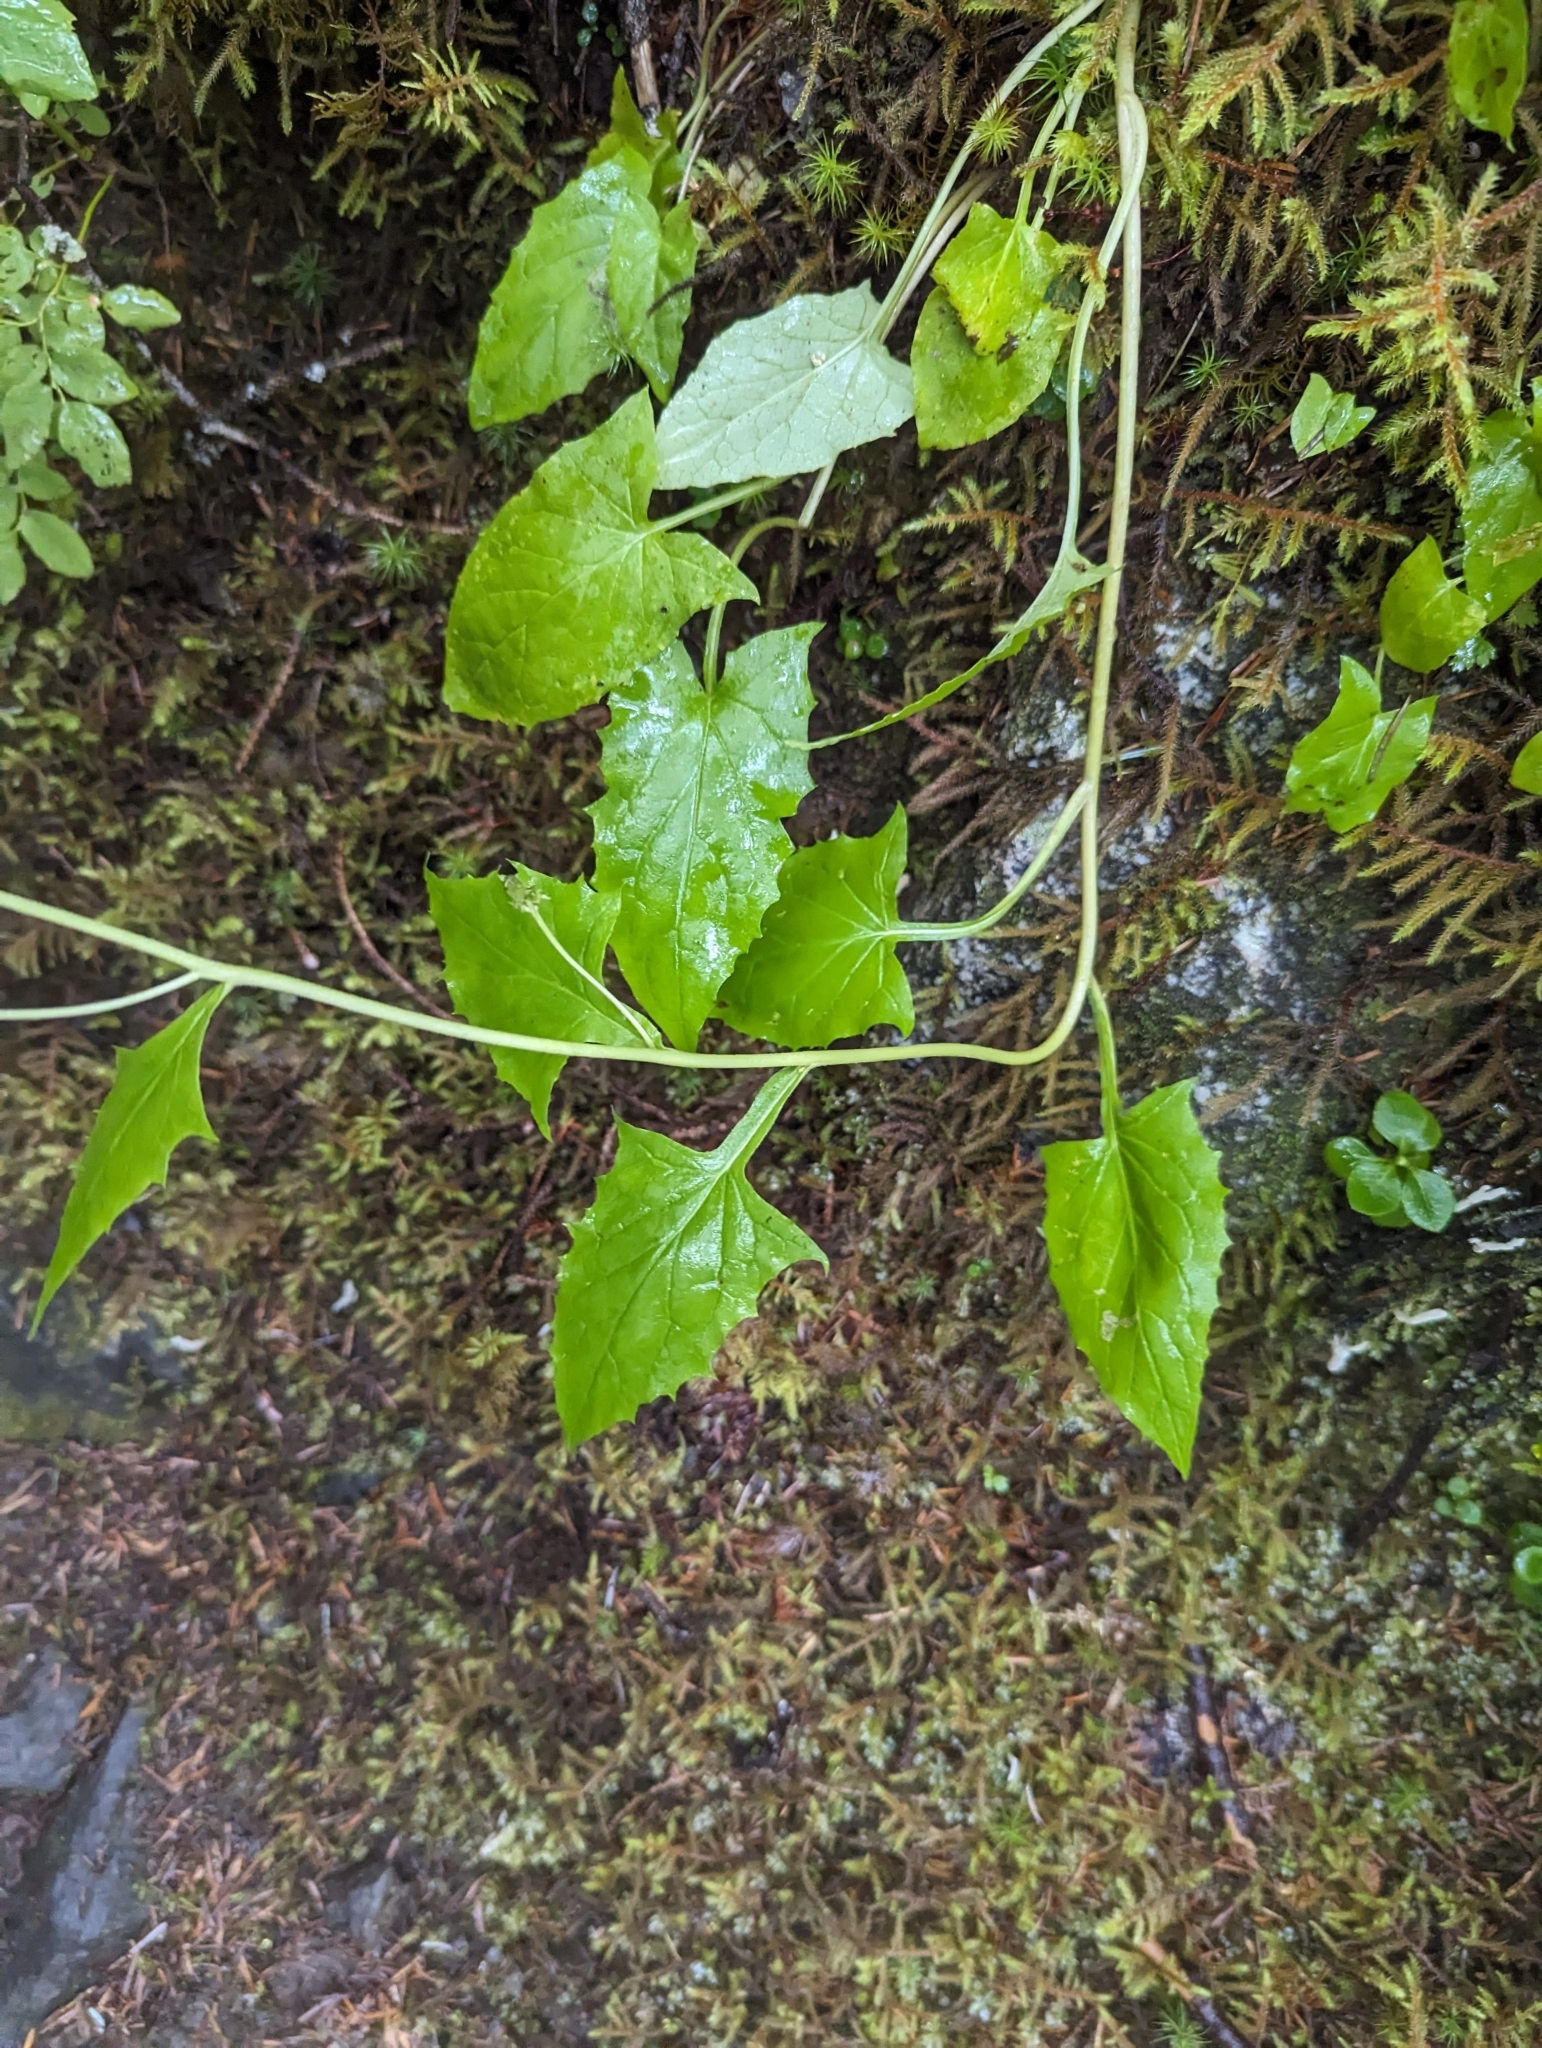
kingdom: Plantae
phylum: Tracheophyta
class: Magnoliopsida
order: Asterales
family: Asteraceae
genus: Nabalus
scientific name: Nabalus hastatus
